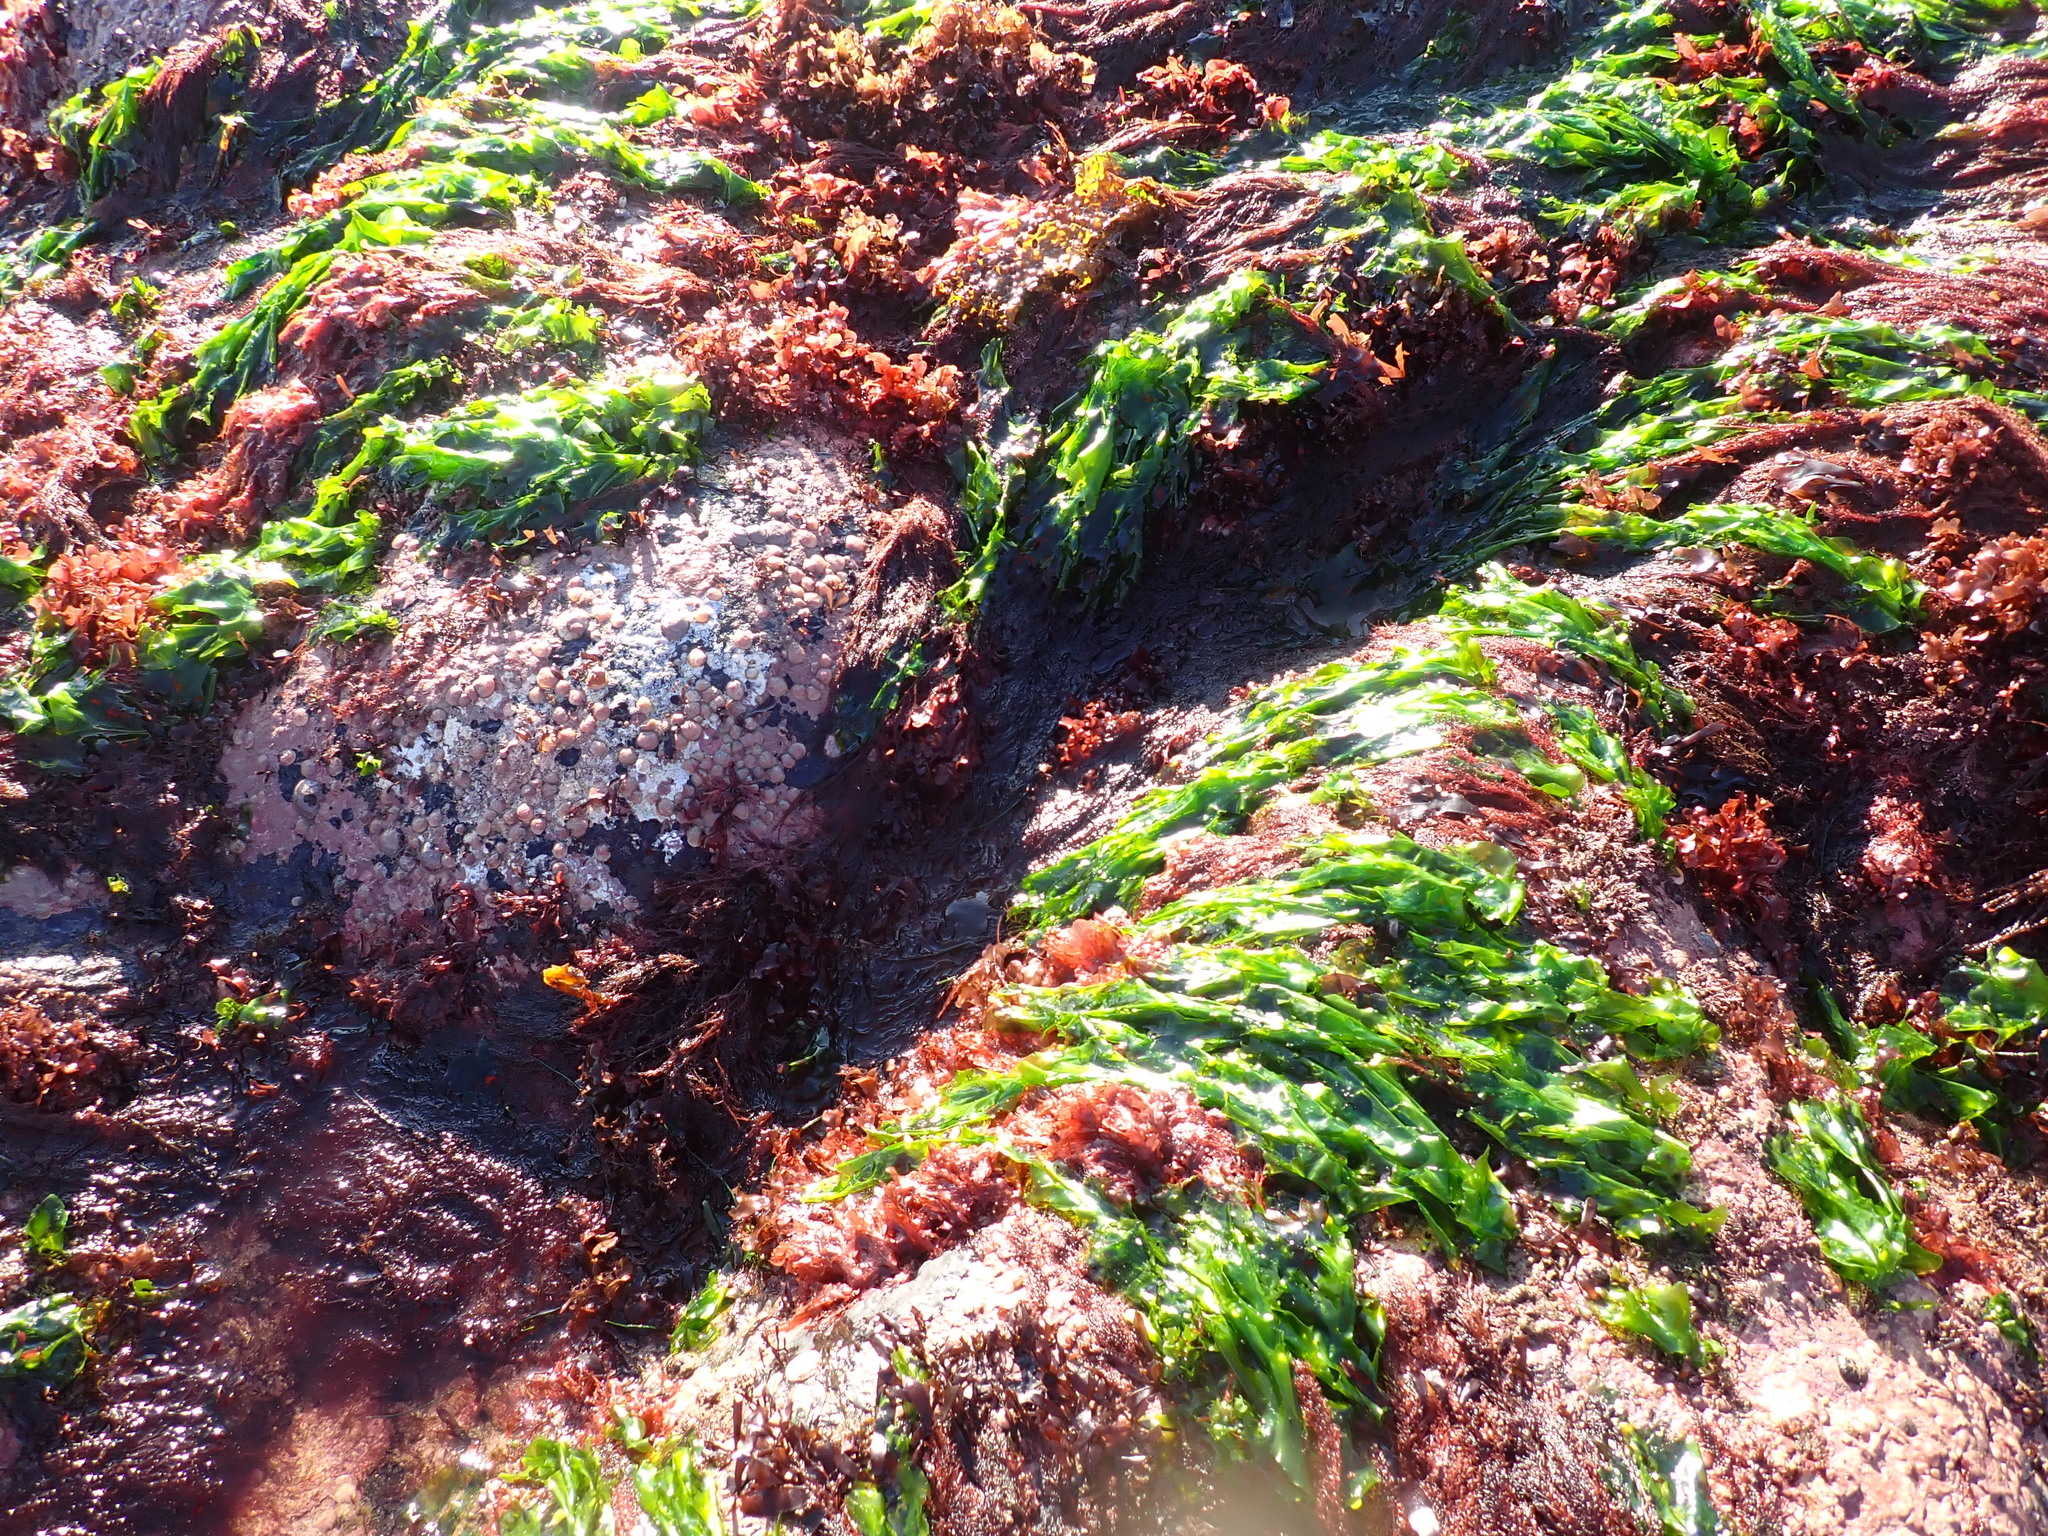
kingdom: Plantae
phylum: Chlorophyta
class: Ulvophyceae
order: Ulvales
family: Ulvaceae
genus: Ulva
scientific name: Ulva lactuca
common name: Sea lettuce
